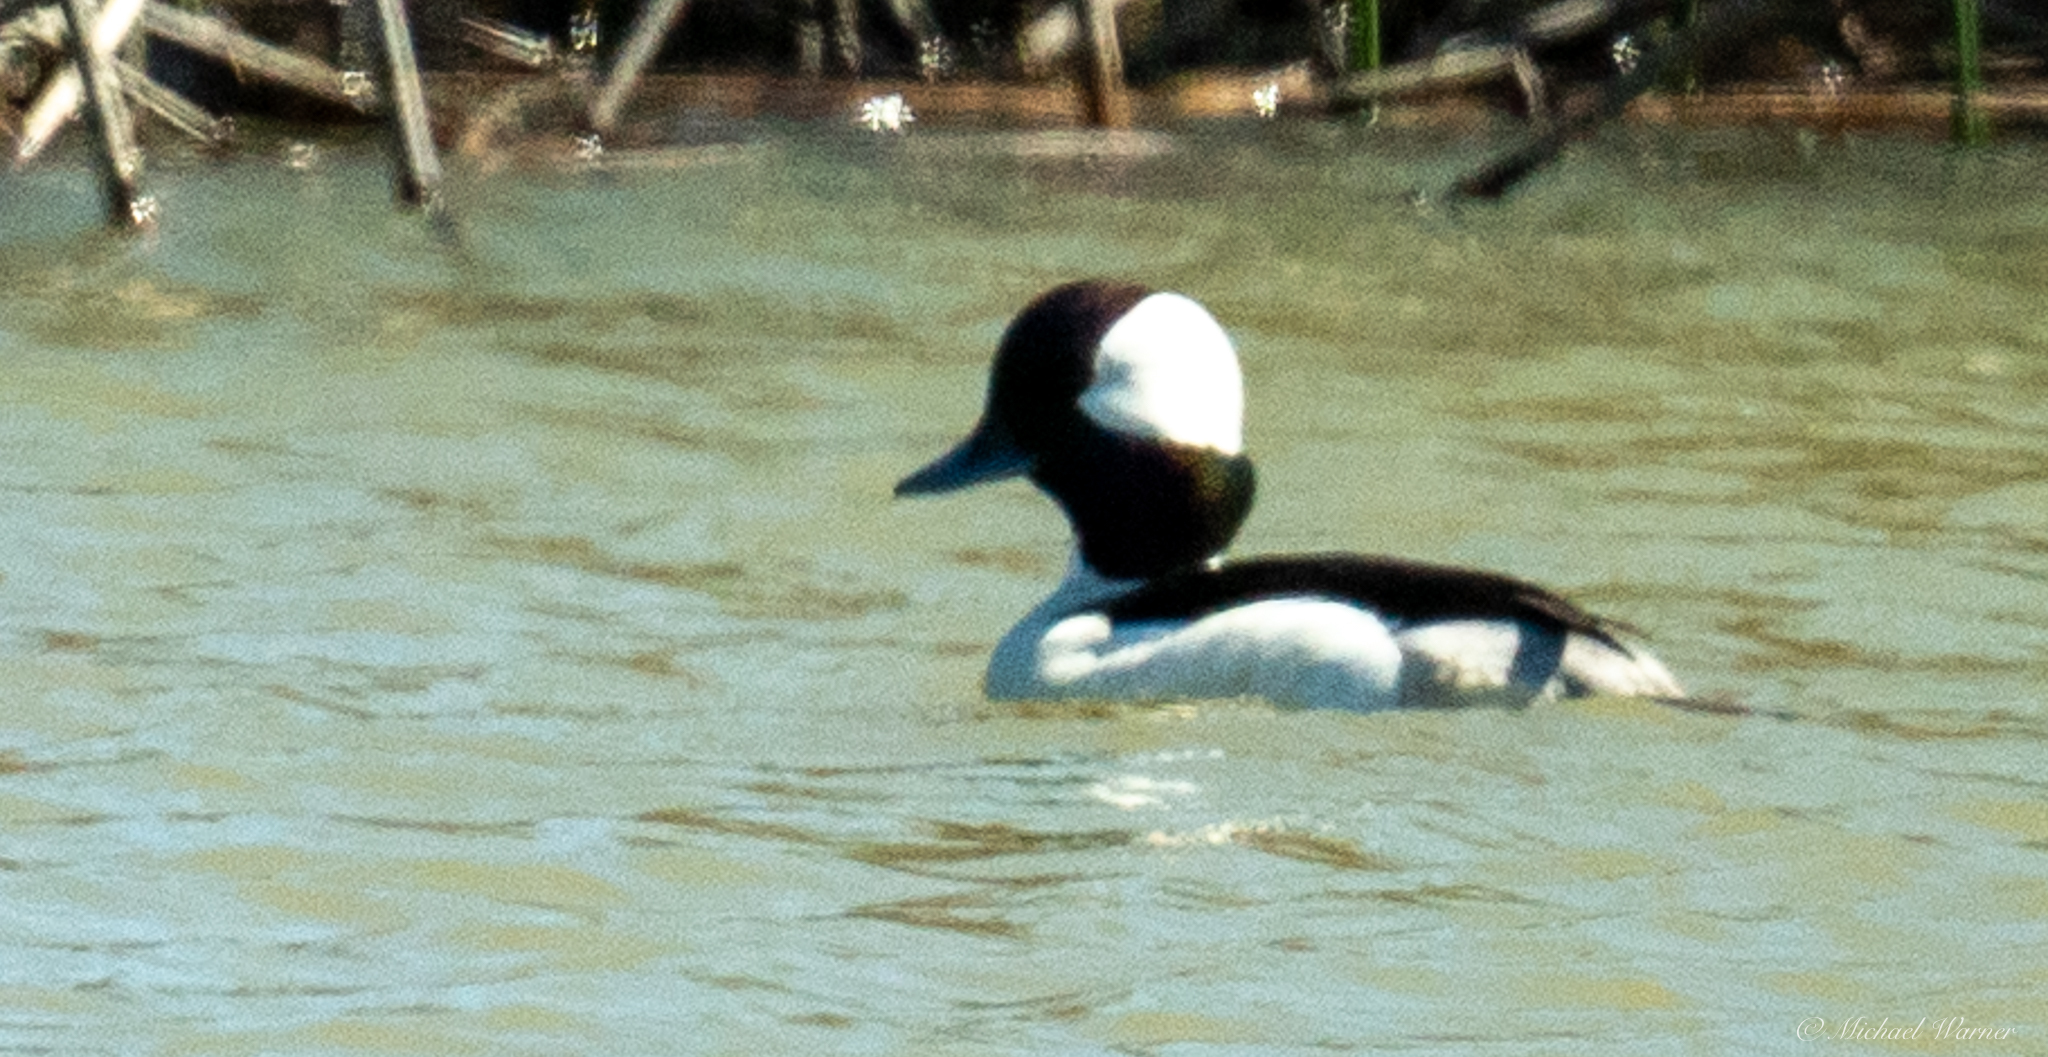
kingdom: Animalia
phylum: Chordata
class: Aves
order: Anseriformes
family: Anatidae
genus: Bucephala
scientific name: Bucephala albeola
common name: Bufflehead
